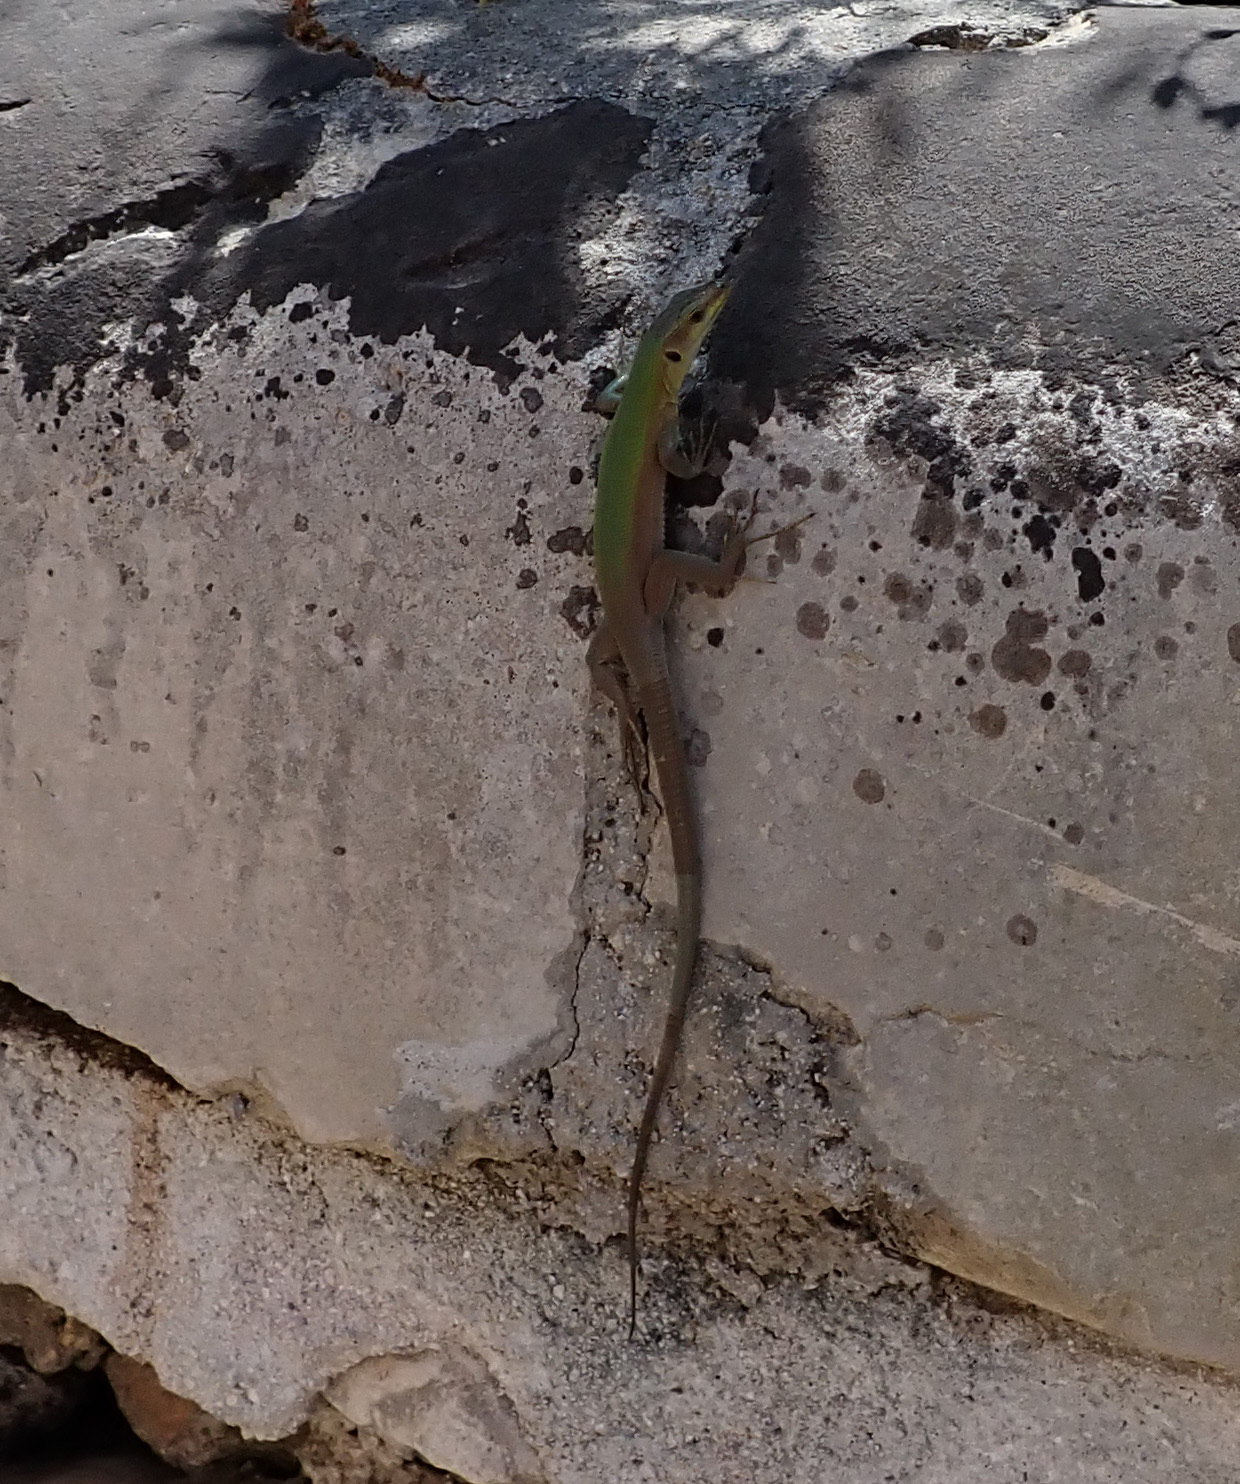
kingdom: Animalia
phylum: Chordata
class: Squamata
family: Lacertidae
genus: Podarcis
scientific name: Podarcis siculus
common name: Italian wall lizard
